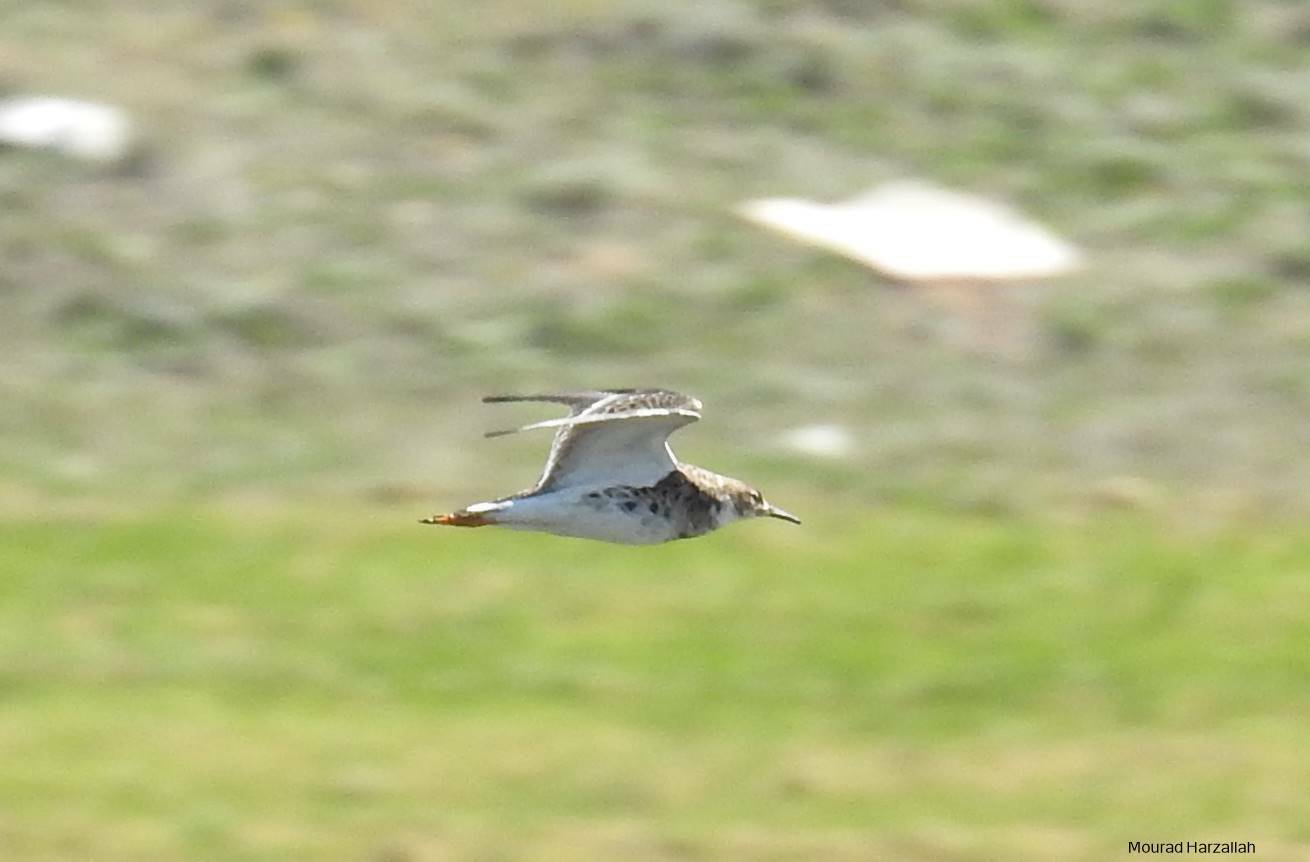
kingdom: Animalia
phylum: Chordata
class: Aves
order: Charadriiformes
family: Scolopacidae
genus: Calidris
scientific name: Calidris pugnax
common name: Ruff
